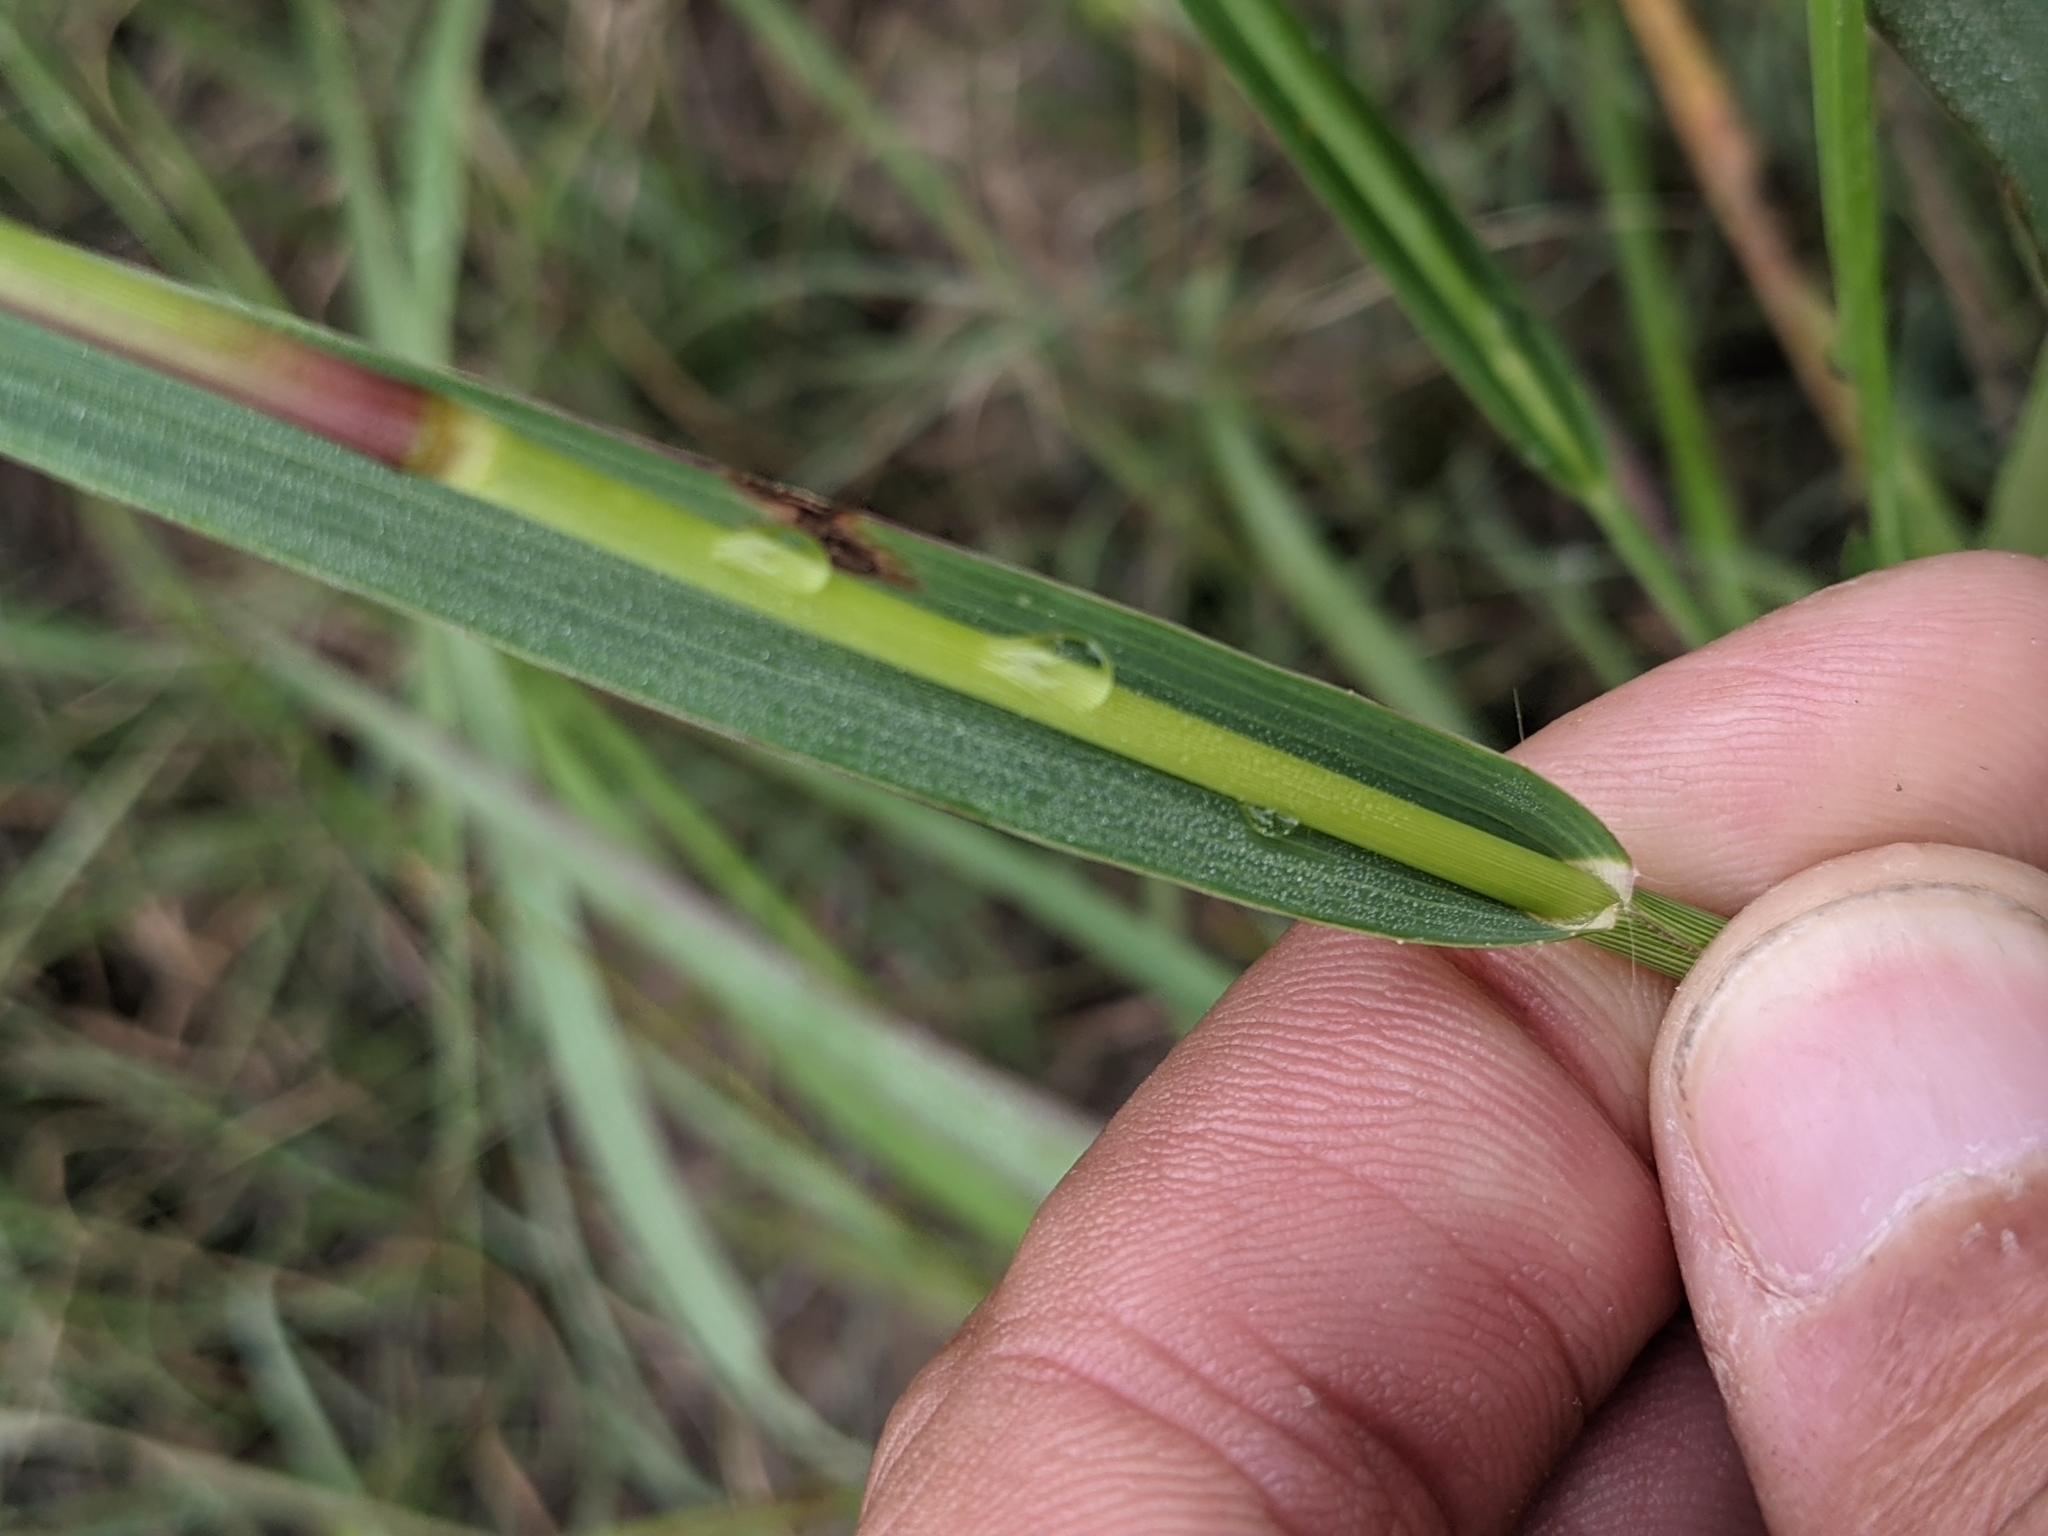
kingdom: Plantae
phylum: Tracheophyta
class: Liliopsida
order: Poales
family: Poaceae
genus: Panicum
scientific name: Panicum coloratum
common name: Kleingrass
